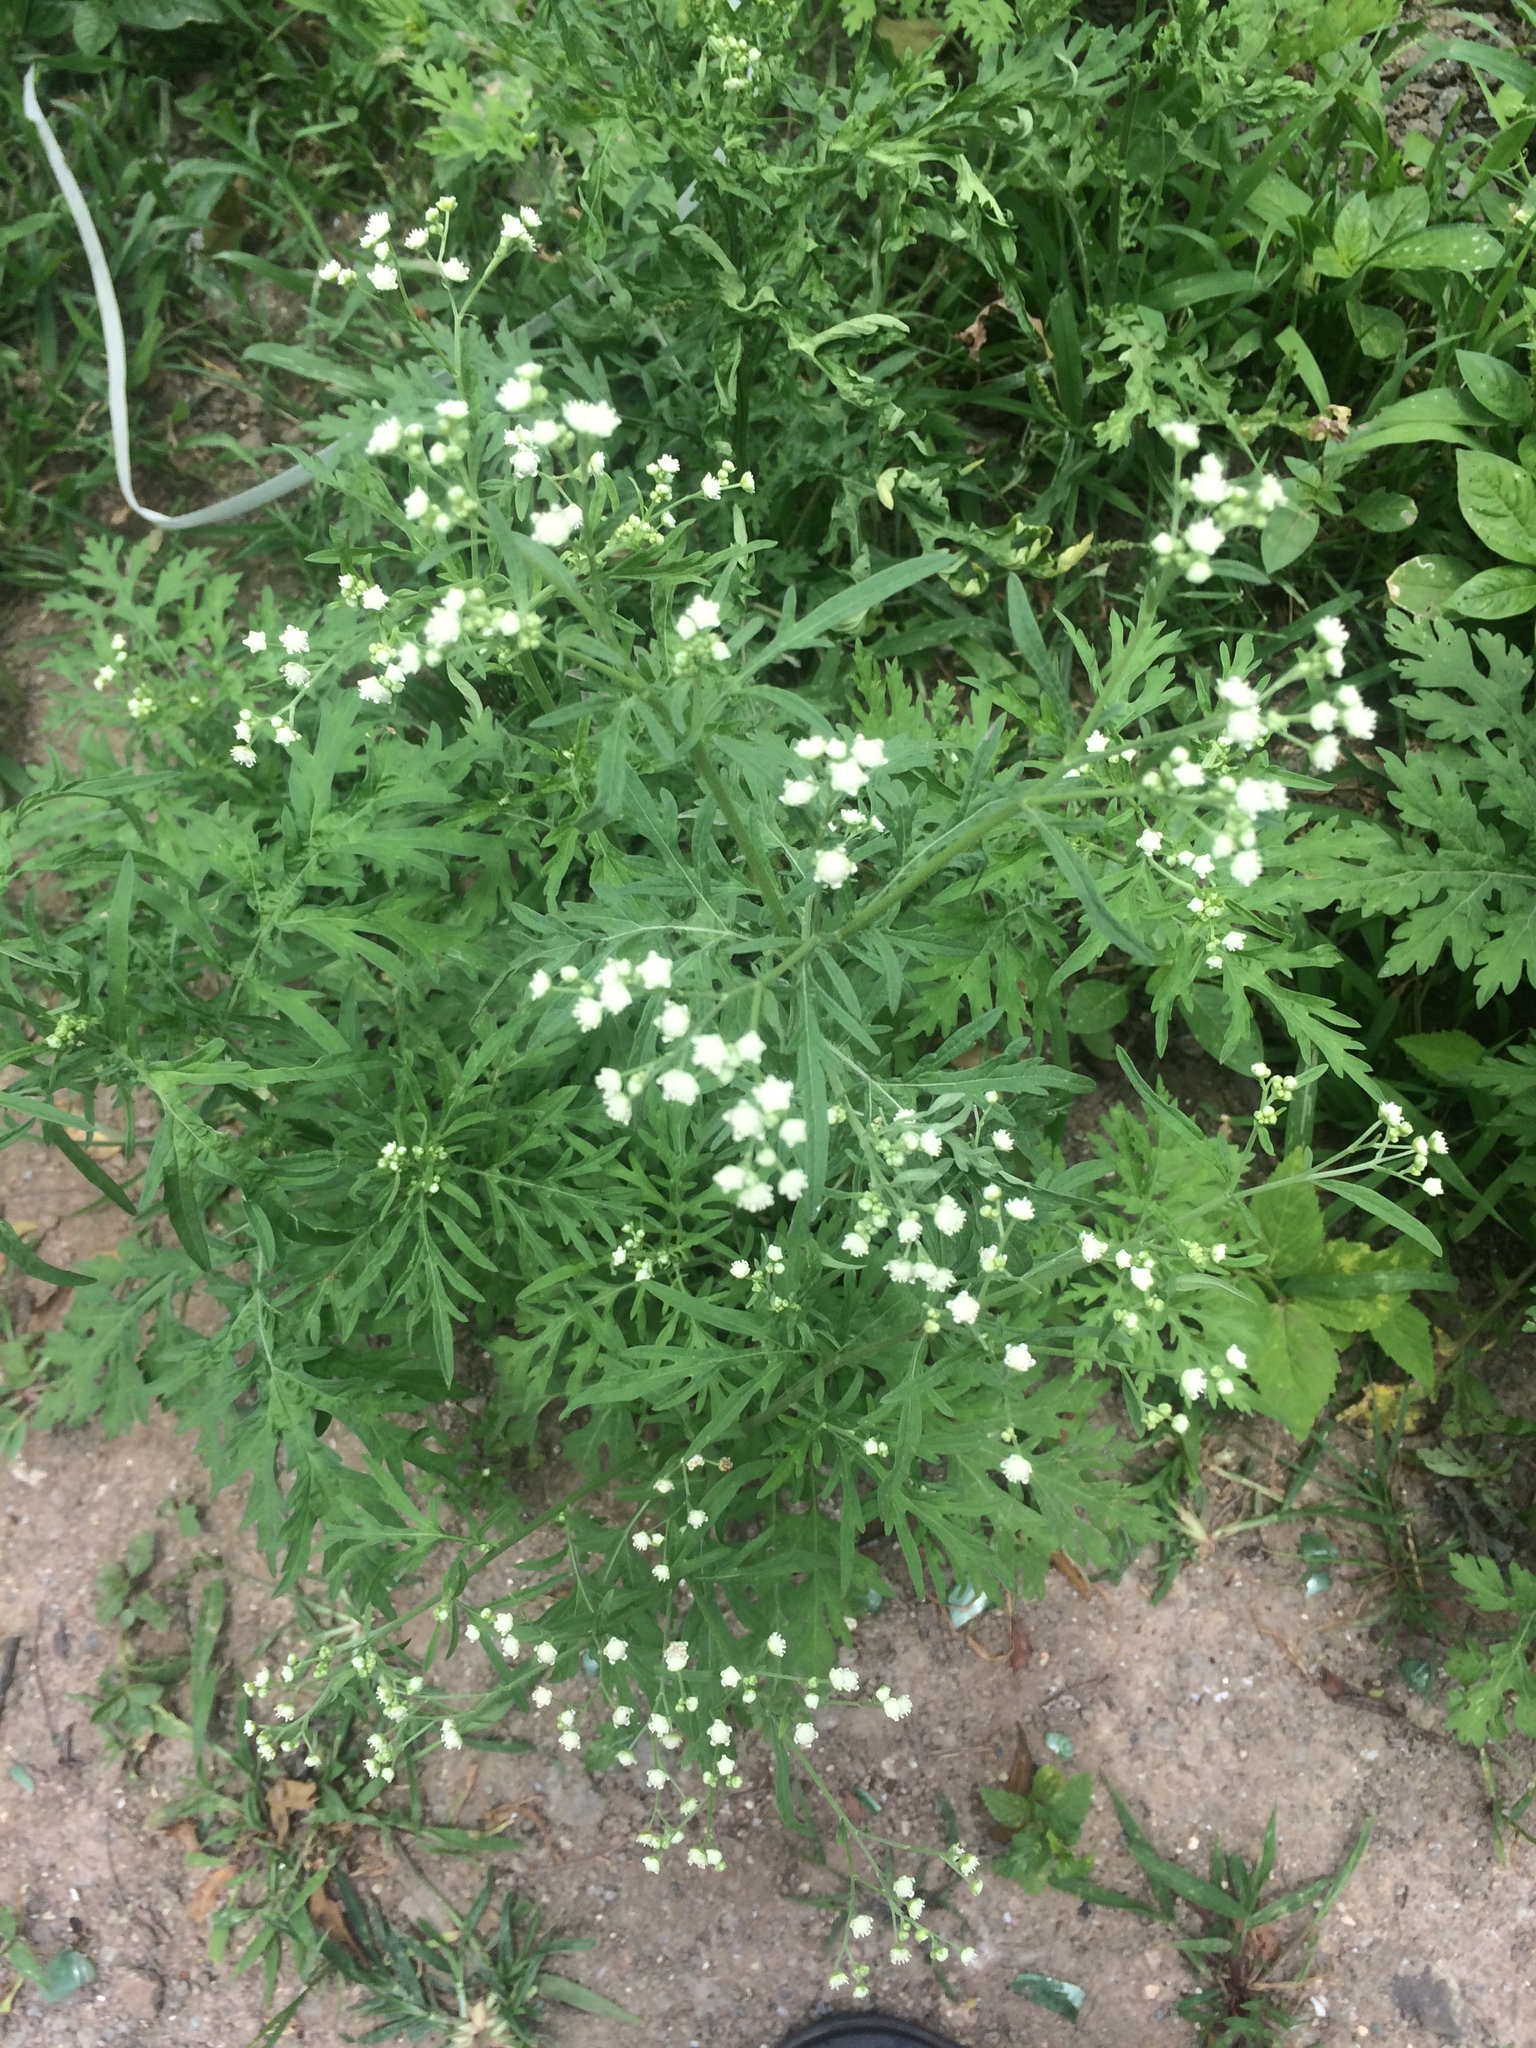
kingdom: Plantae
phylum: Tracheophyta
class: Magnoliopsida
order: Asterales
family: Asteraceae
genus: Parthenium
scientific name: Parthenium hysterophorus
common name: Santa maria feverfew
